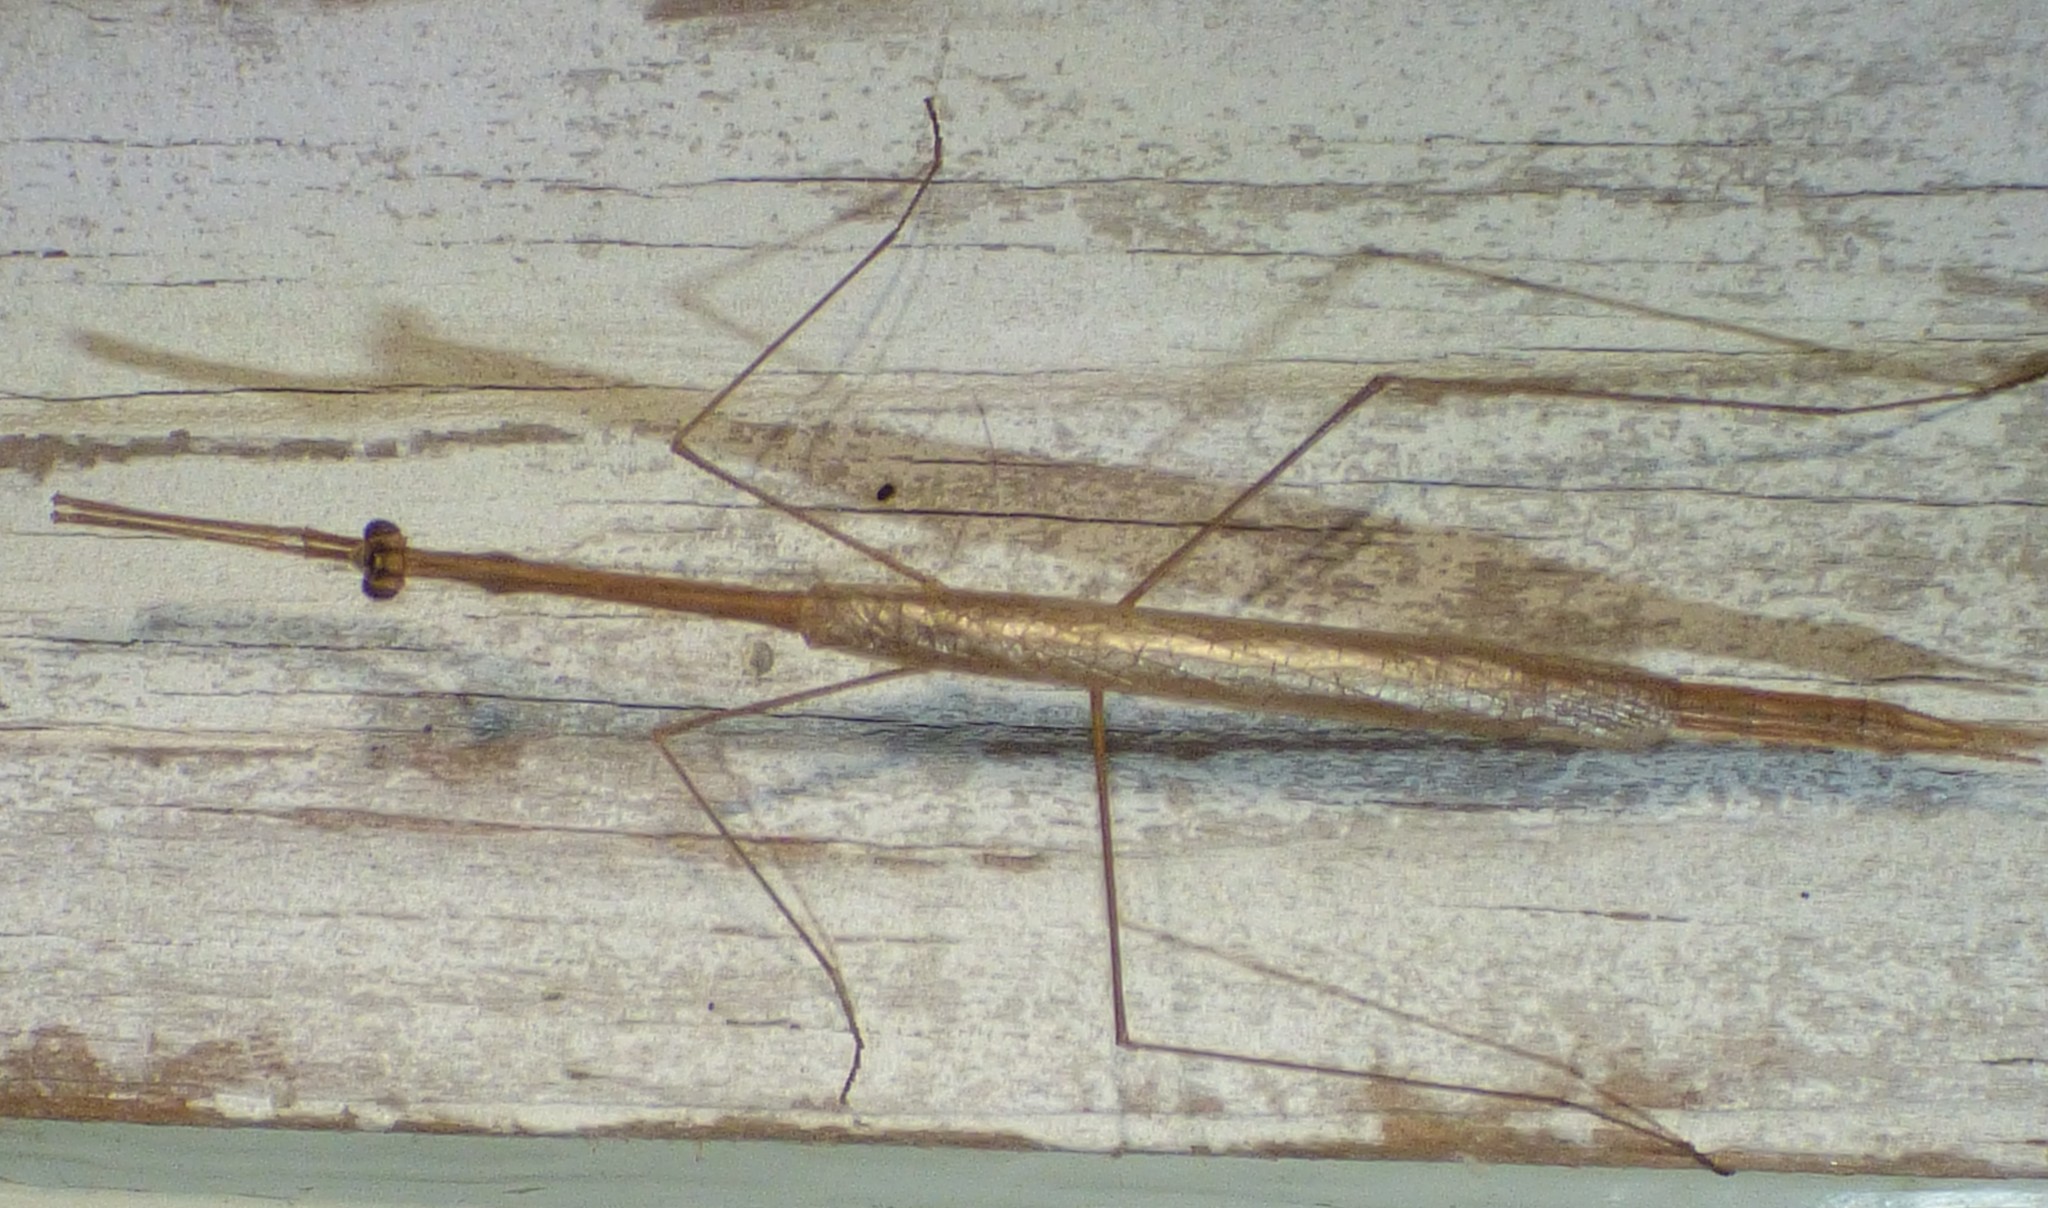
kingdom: Animalia
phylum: Arthropoda
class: Insecta
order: Mantodea
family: Thespidae
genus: Thesprotia
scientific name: Thesprotia graminis
